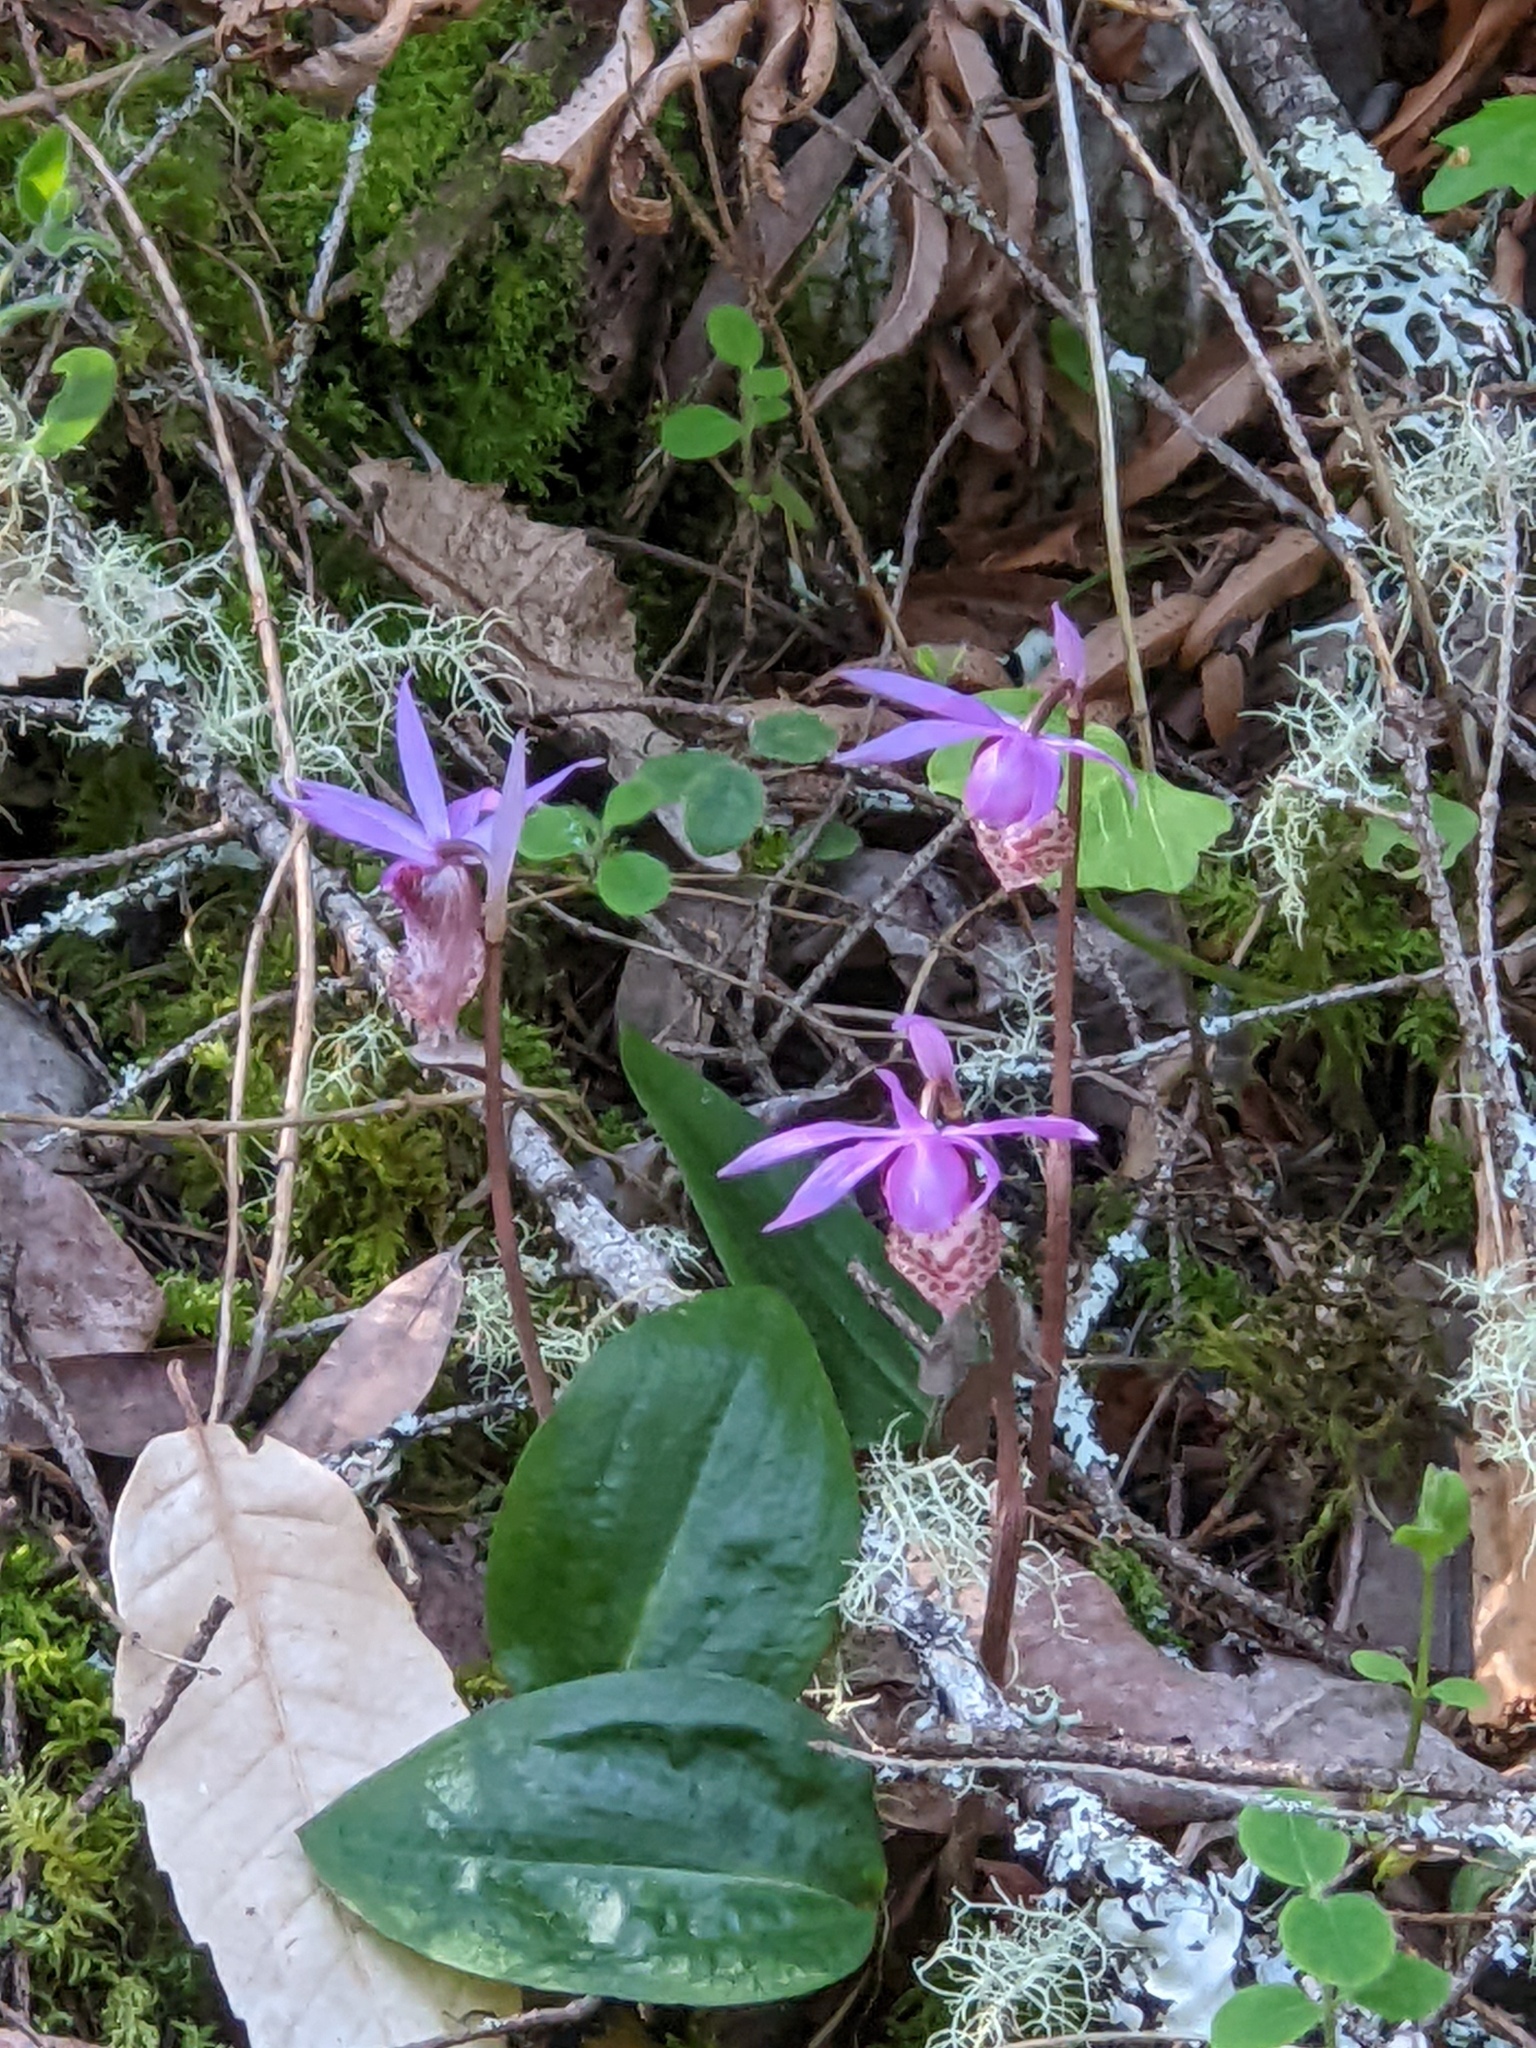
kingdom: Plantae
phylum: Tracheophyta
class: Liliopsida
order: Asparagales
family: Orchidaceae
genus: Calypso
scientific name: Calypso bulbosa
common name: Calypso
